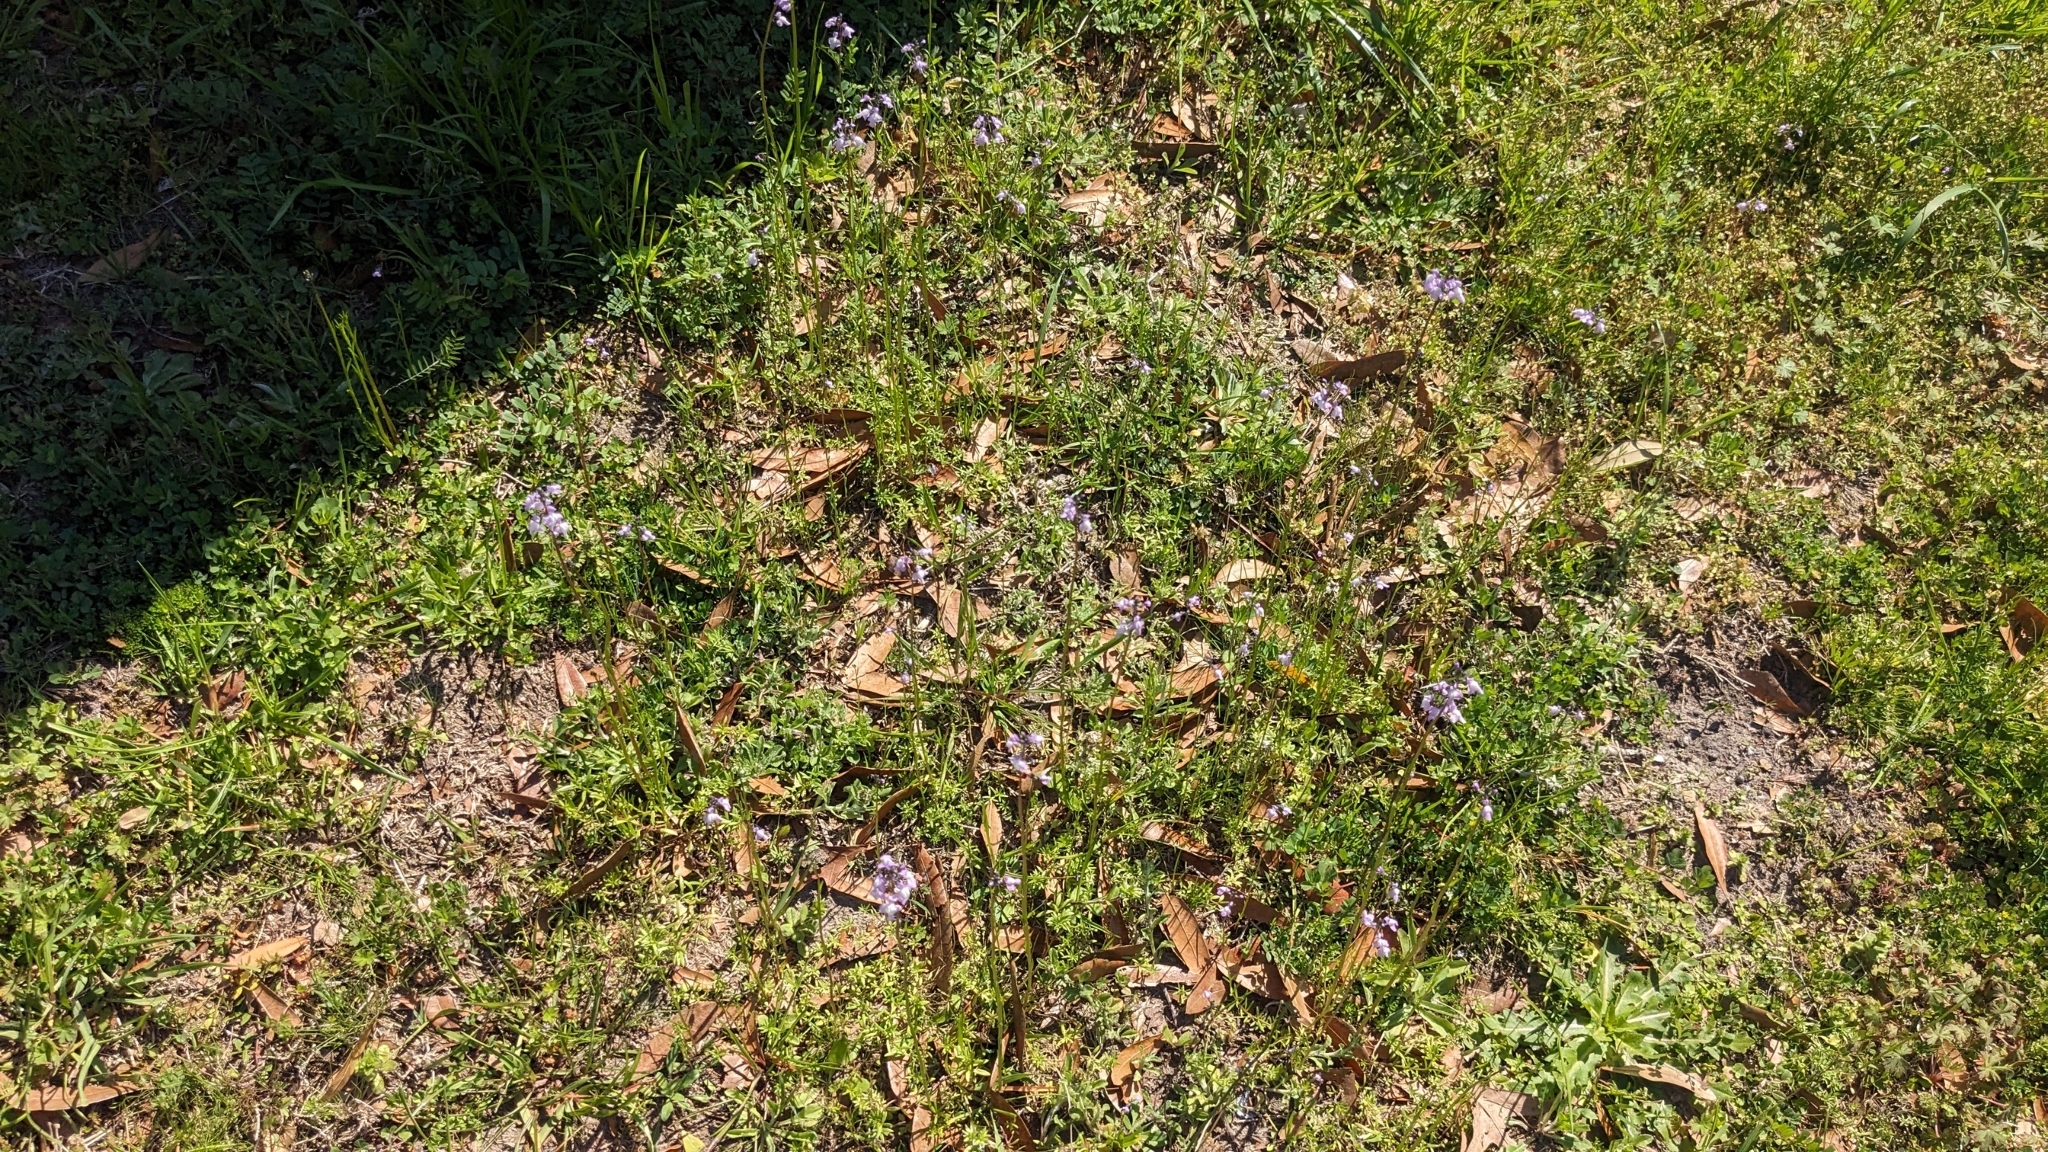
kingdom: Plantae
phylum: Tracheophyta
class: Magnoliopsida
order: Lamiales
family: Plantaginaceae
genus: Nuttallanthus
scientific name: Nuttallanthus canadensis
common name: Blue toadflax
